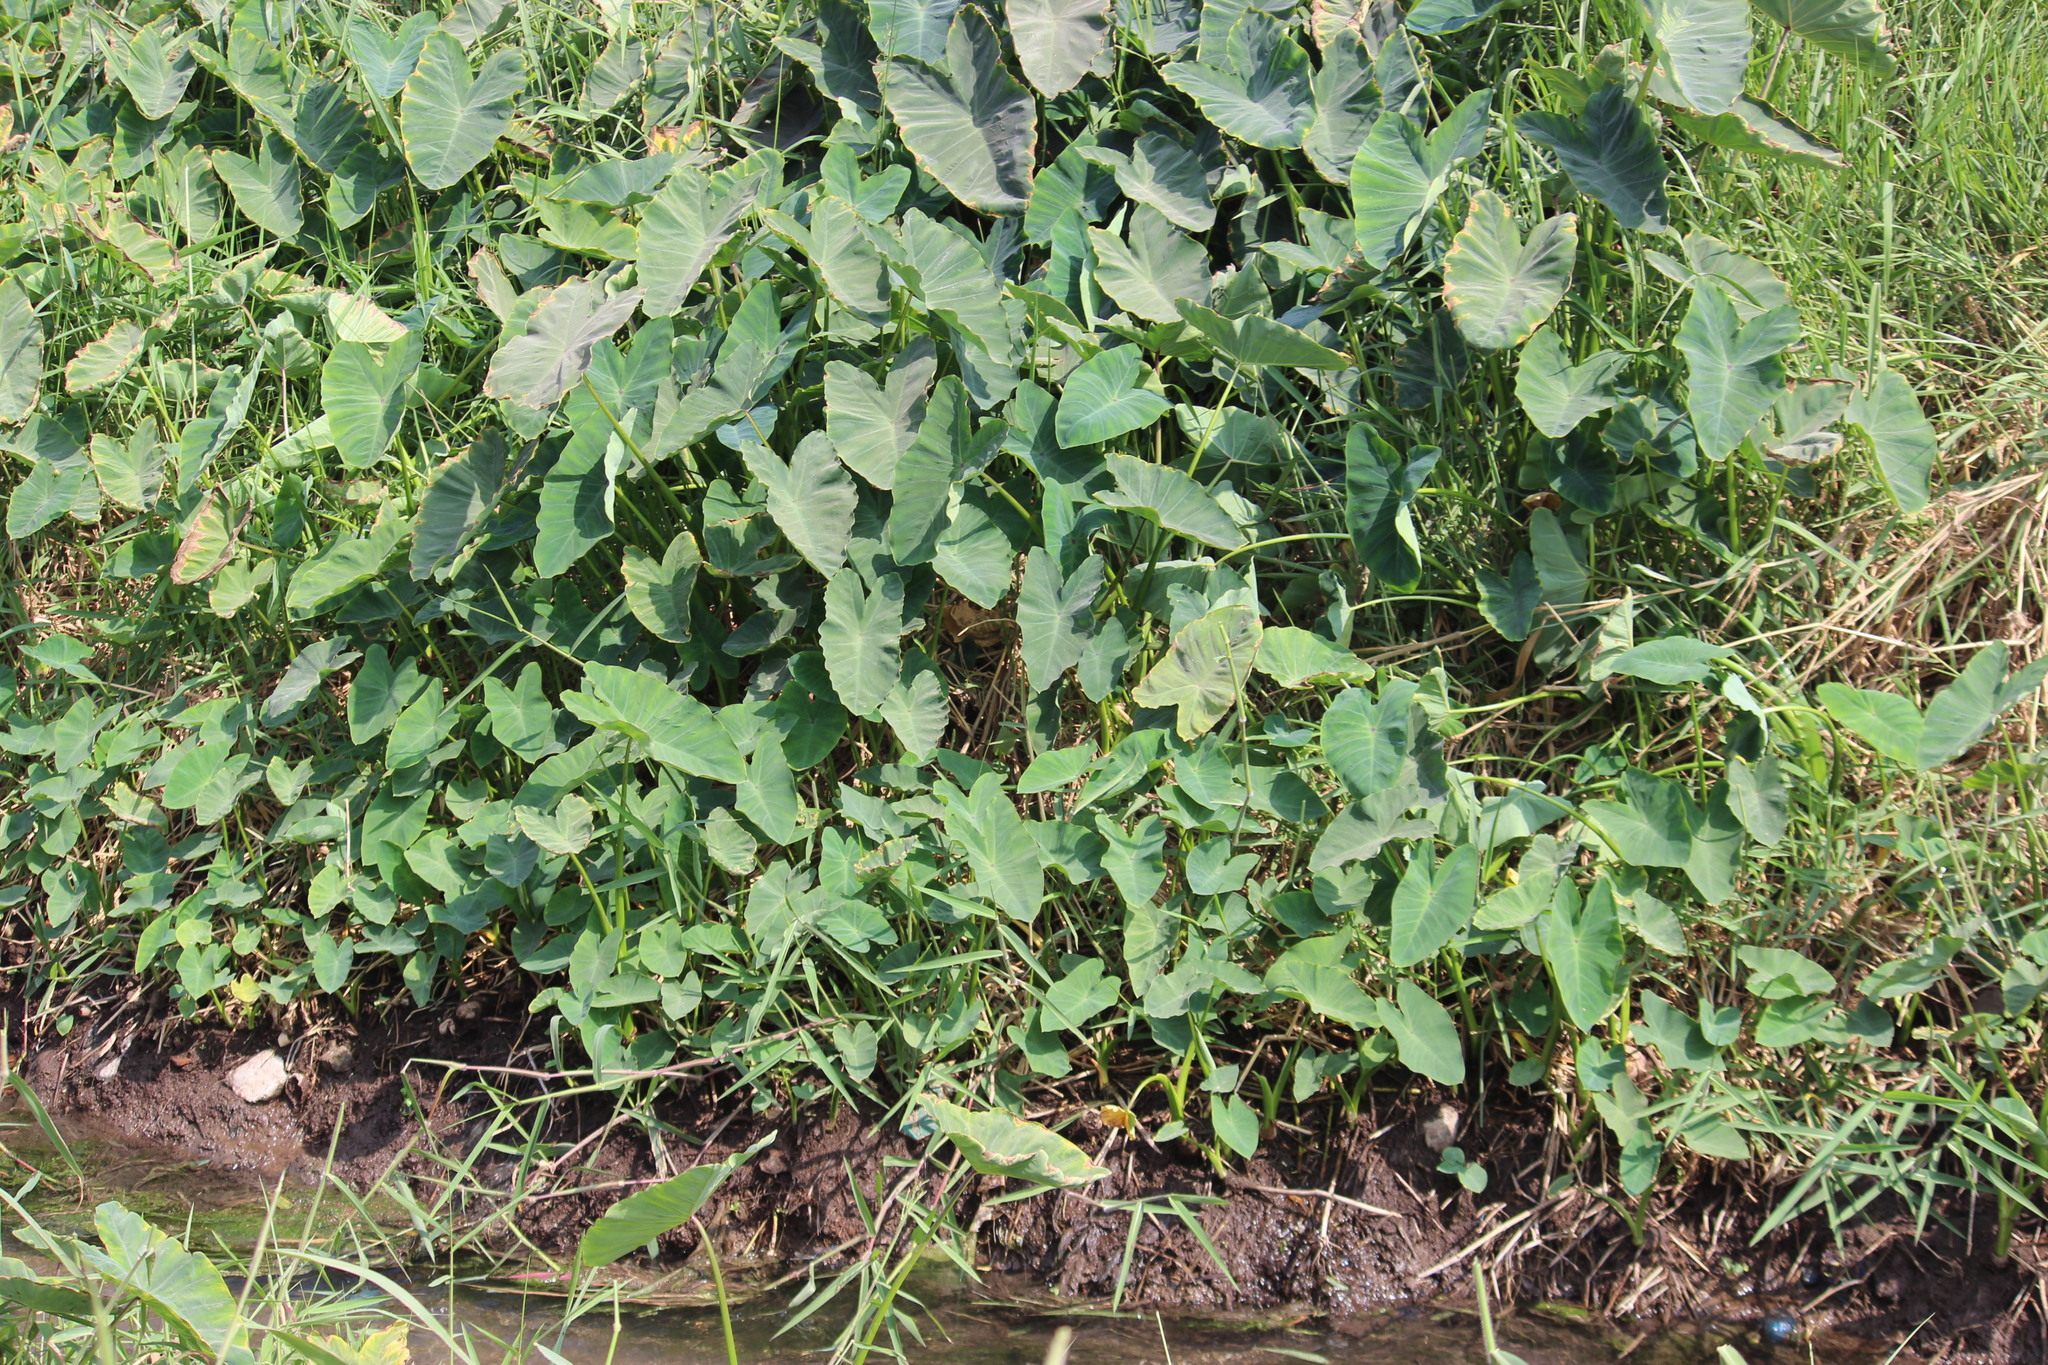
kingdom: Plantae
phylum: Tracheophyta
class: Liliopsida
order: Alismatales
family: Araceae
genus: Colocasia
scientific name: Colocasia esculenta
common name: Taro
